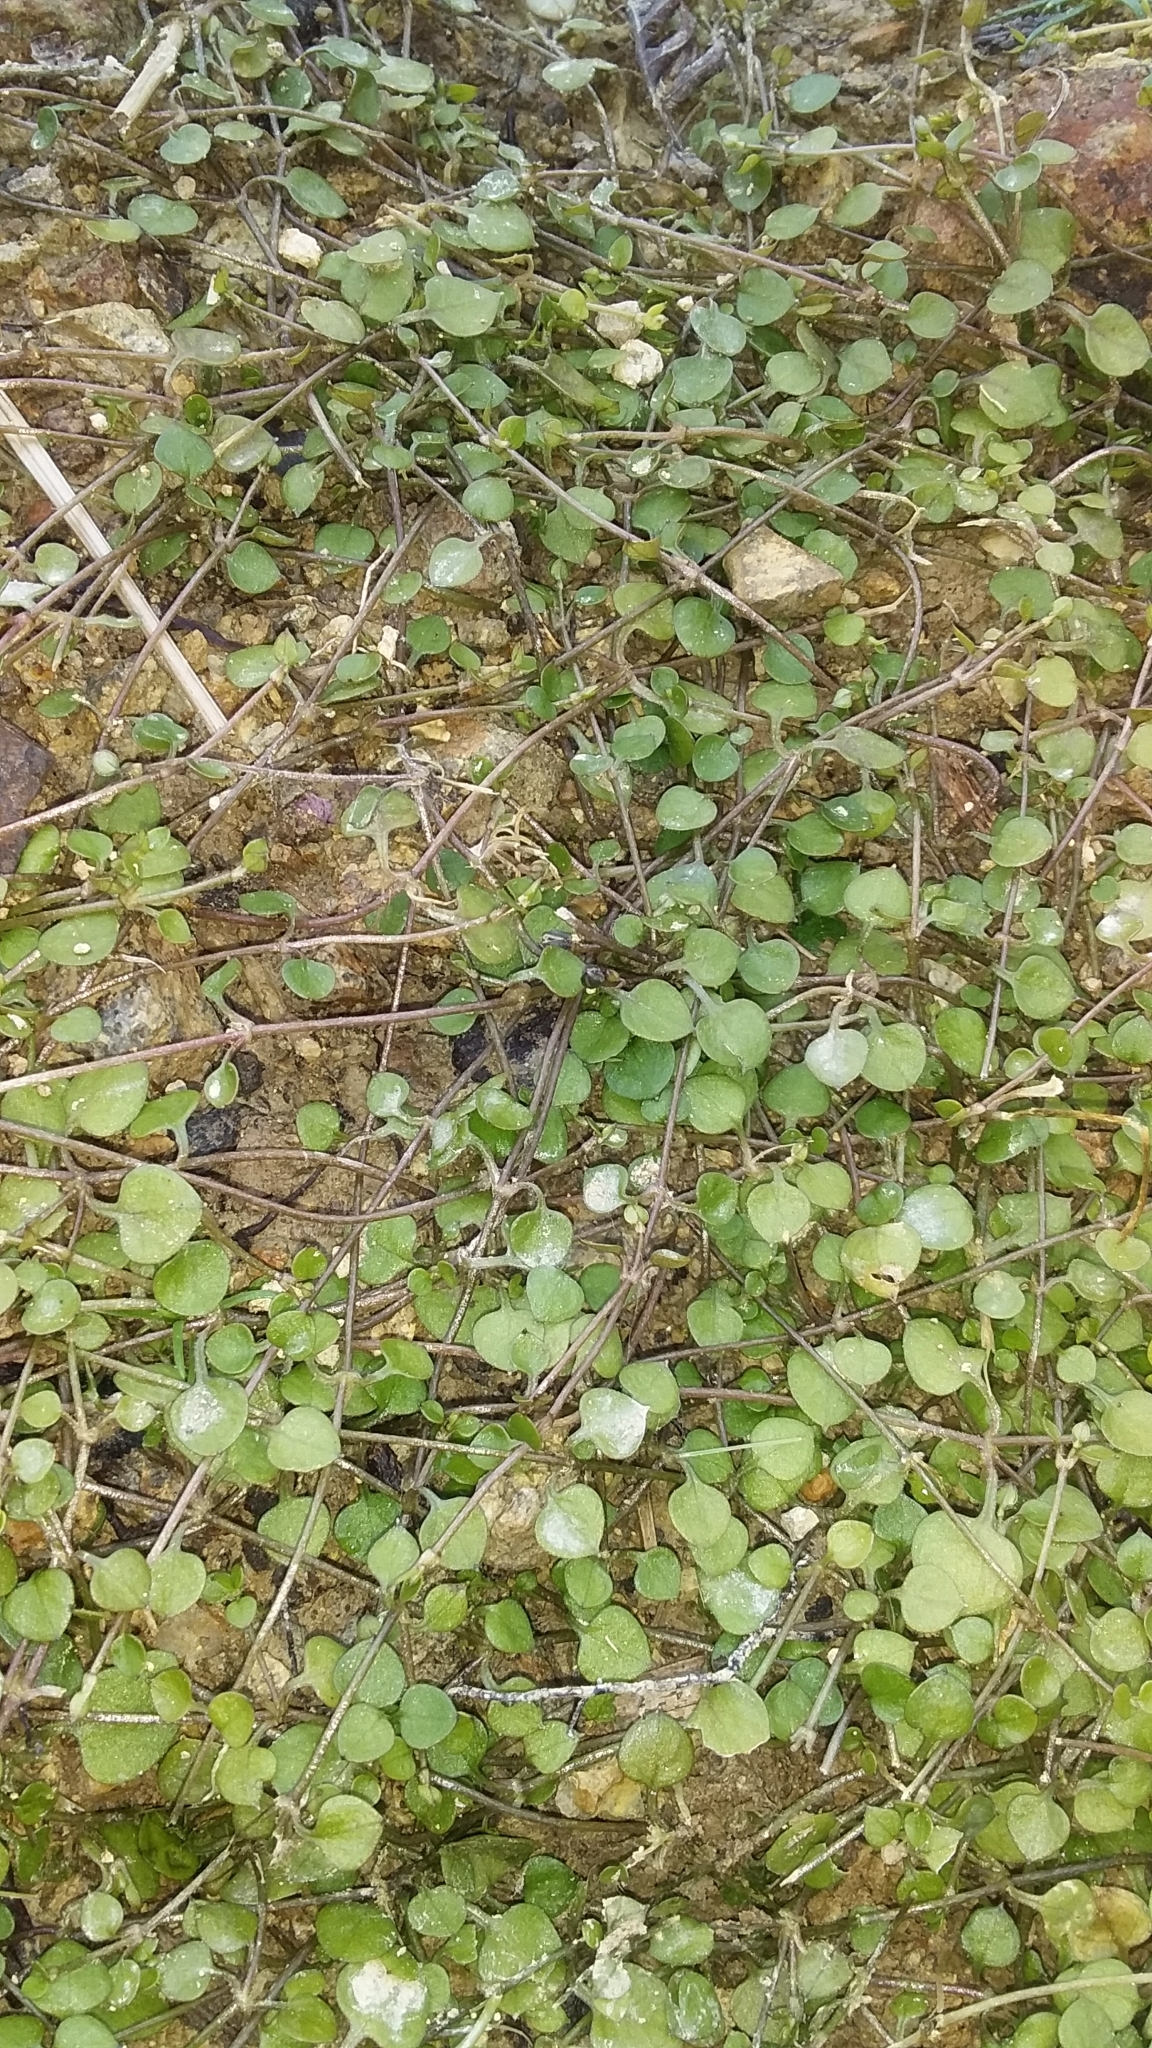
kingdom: Plantae
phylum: Tracheophyta
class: Magnoliopsida
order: Caryophyllales
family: Caryophyllaceae
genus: Stellaria
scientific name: Stellaria parviflora
